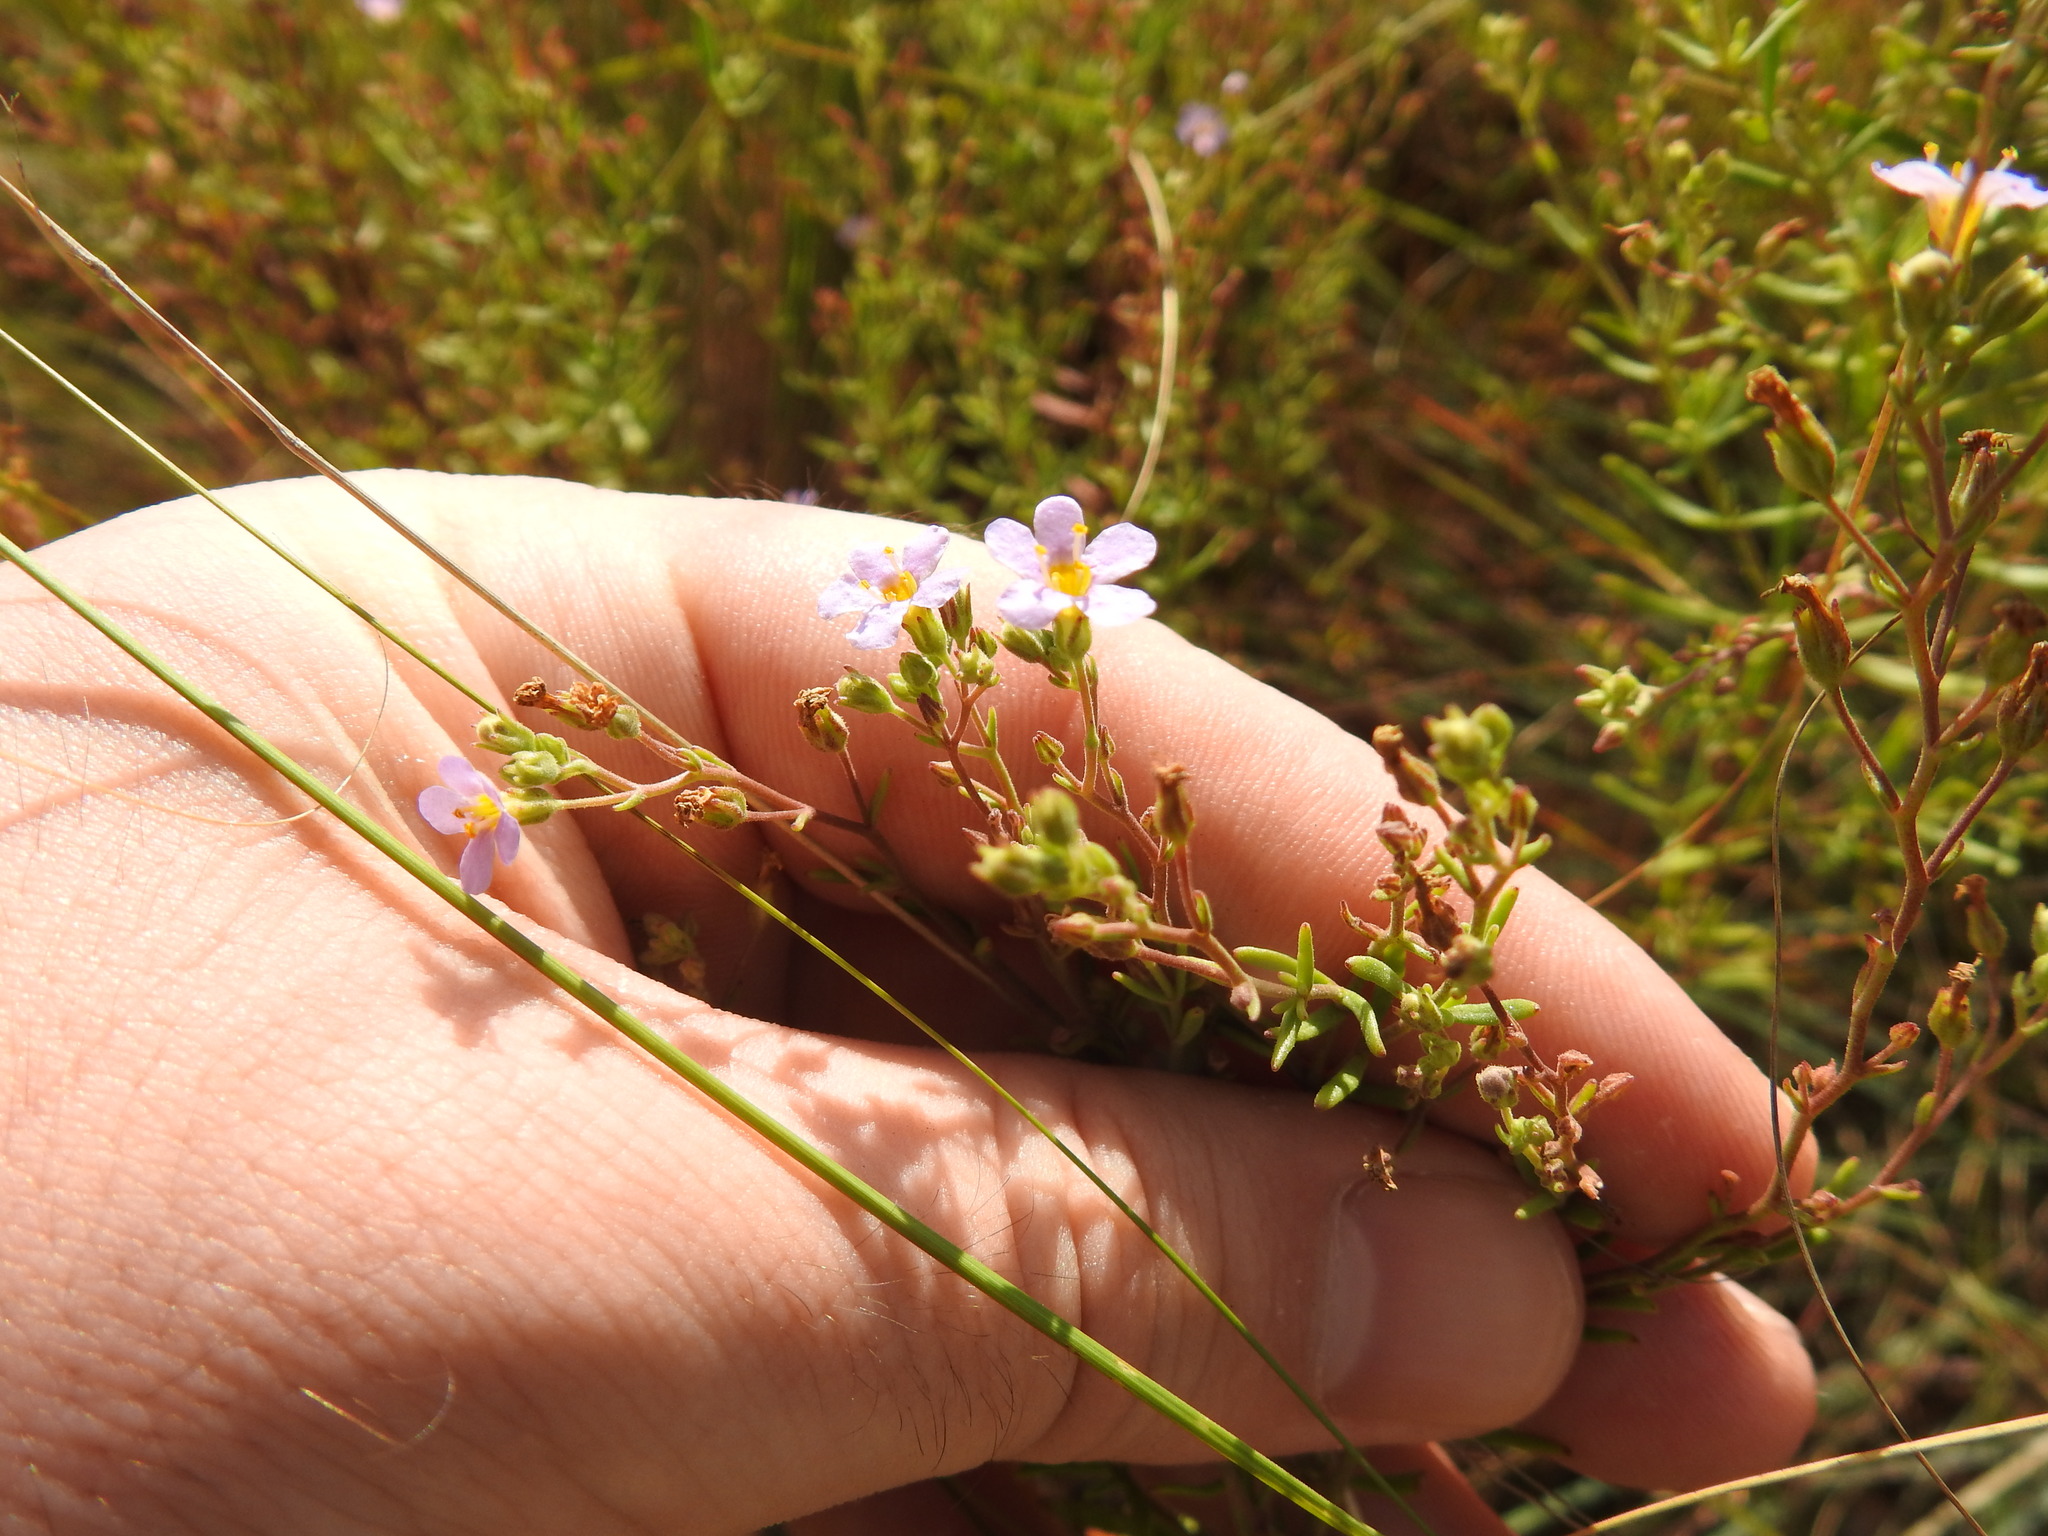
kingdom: Plantae
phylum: Tracheophyta
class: Magnoliopsida
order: Lamiales
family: Scrophulariaceae
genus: Chaenostoma
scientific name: Chaenostoma leve
